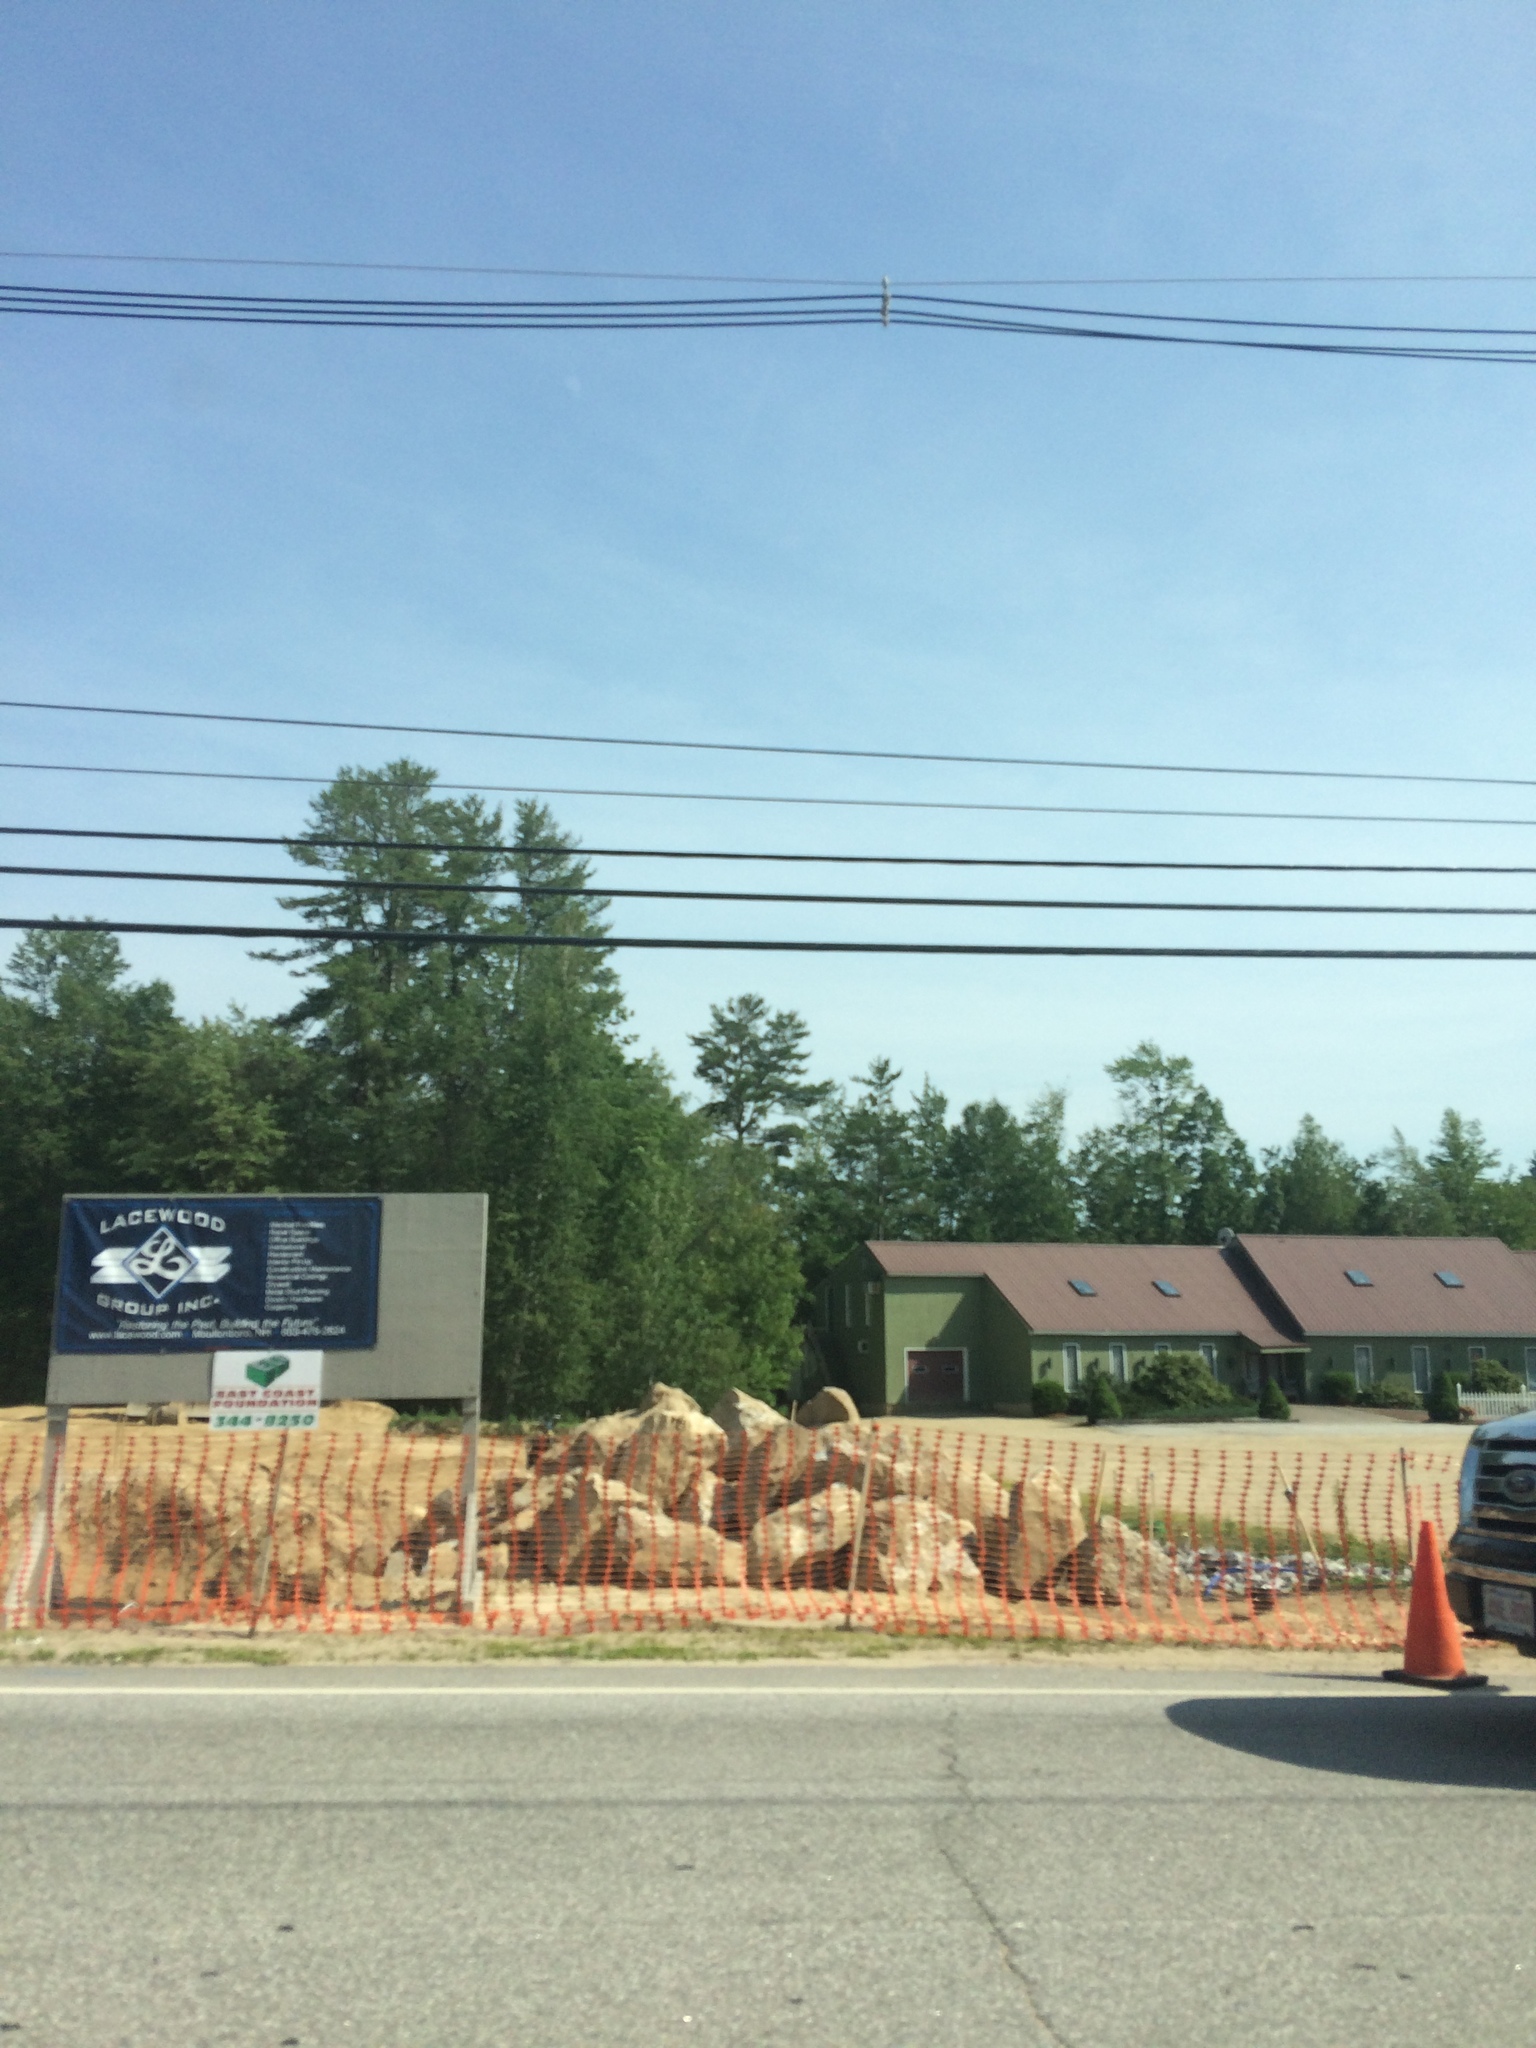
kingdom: Plantae
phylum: Tracheophyta
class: Pinopsida
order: Pinales
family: Pinaceae
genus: Pinus
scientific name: Pinus strobus
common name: Weymouth pine
